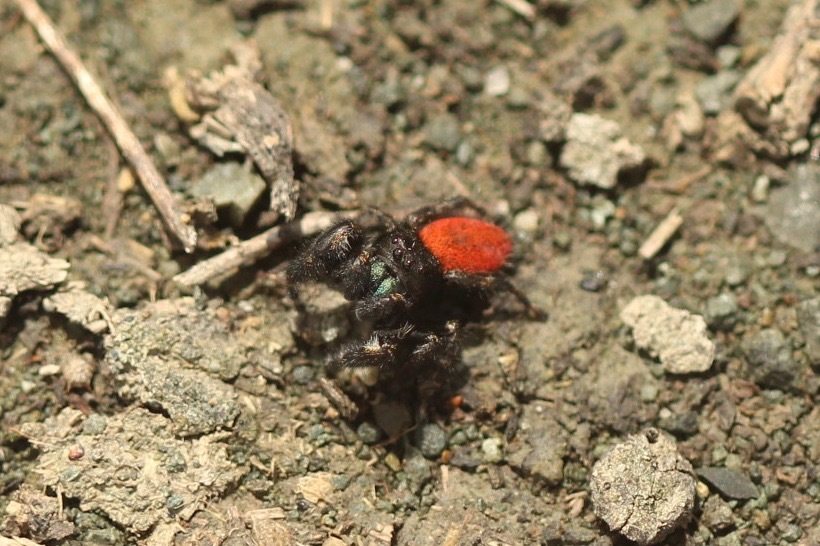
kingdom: Animalia
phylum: Arthropoda
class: Arachnida
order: Araneae
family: Salticidae
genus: Phidippus
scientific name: Phidippus johnsoni
